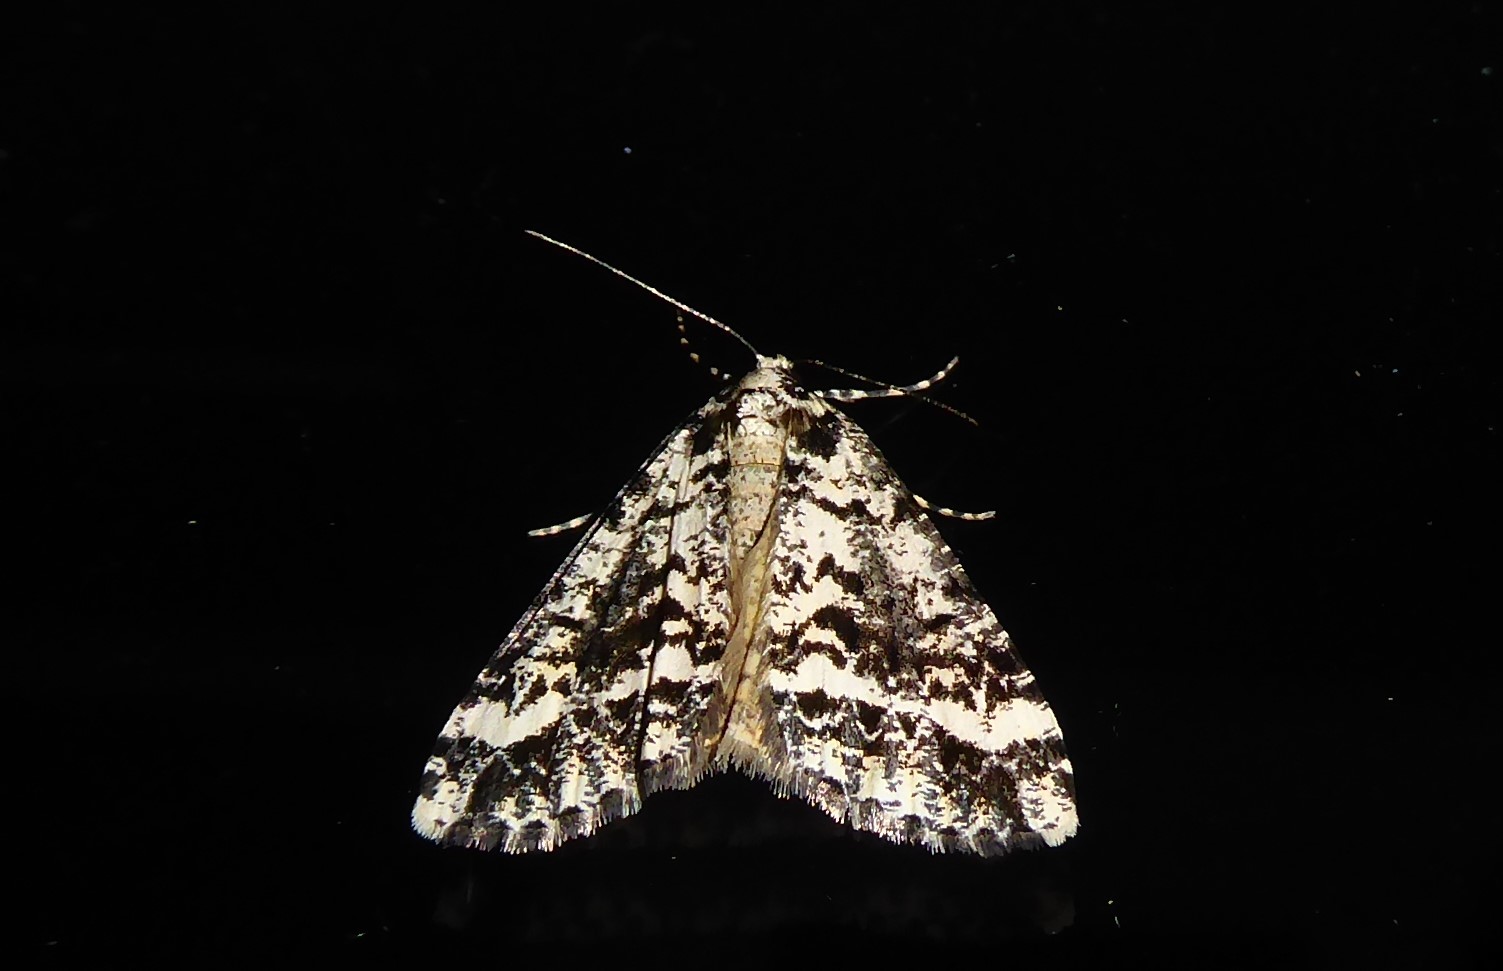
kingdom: Animalia
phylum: Arthropoda
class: Insecta
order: Lepidoptera
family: Geometridae
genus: Pseudocoremia
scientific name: Pseudocoremia leucelaea
